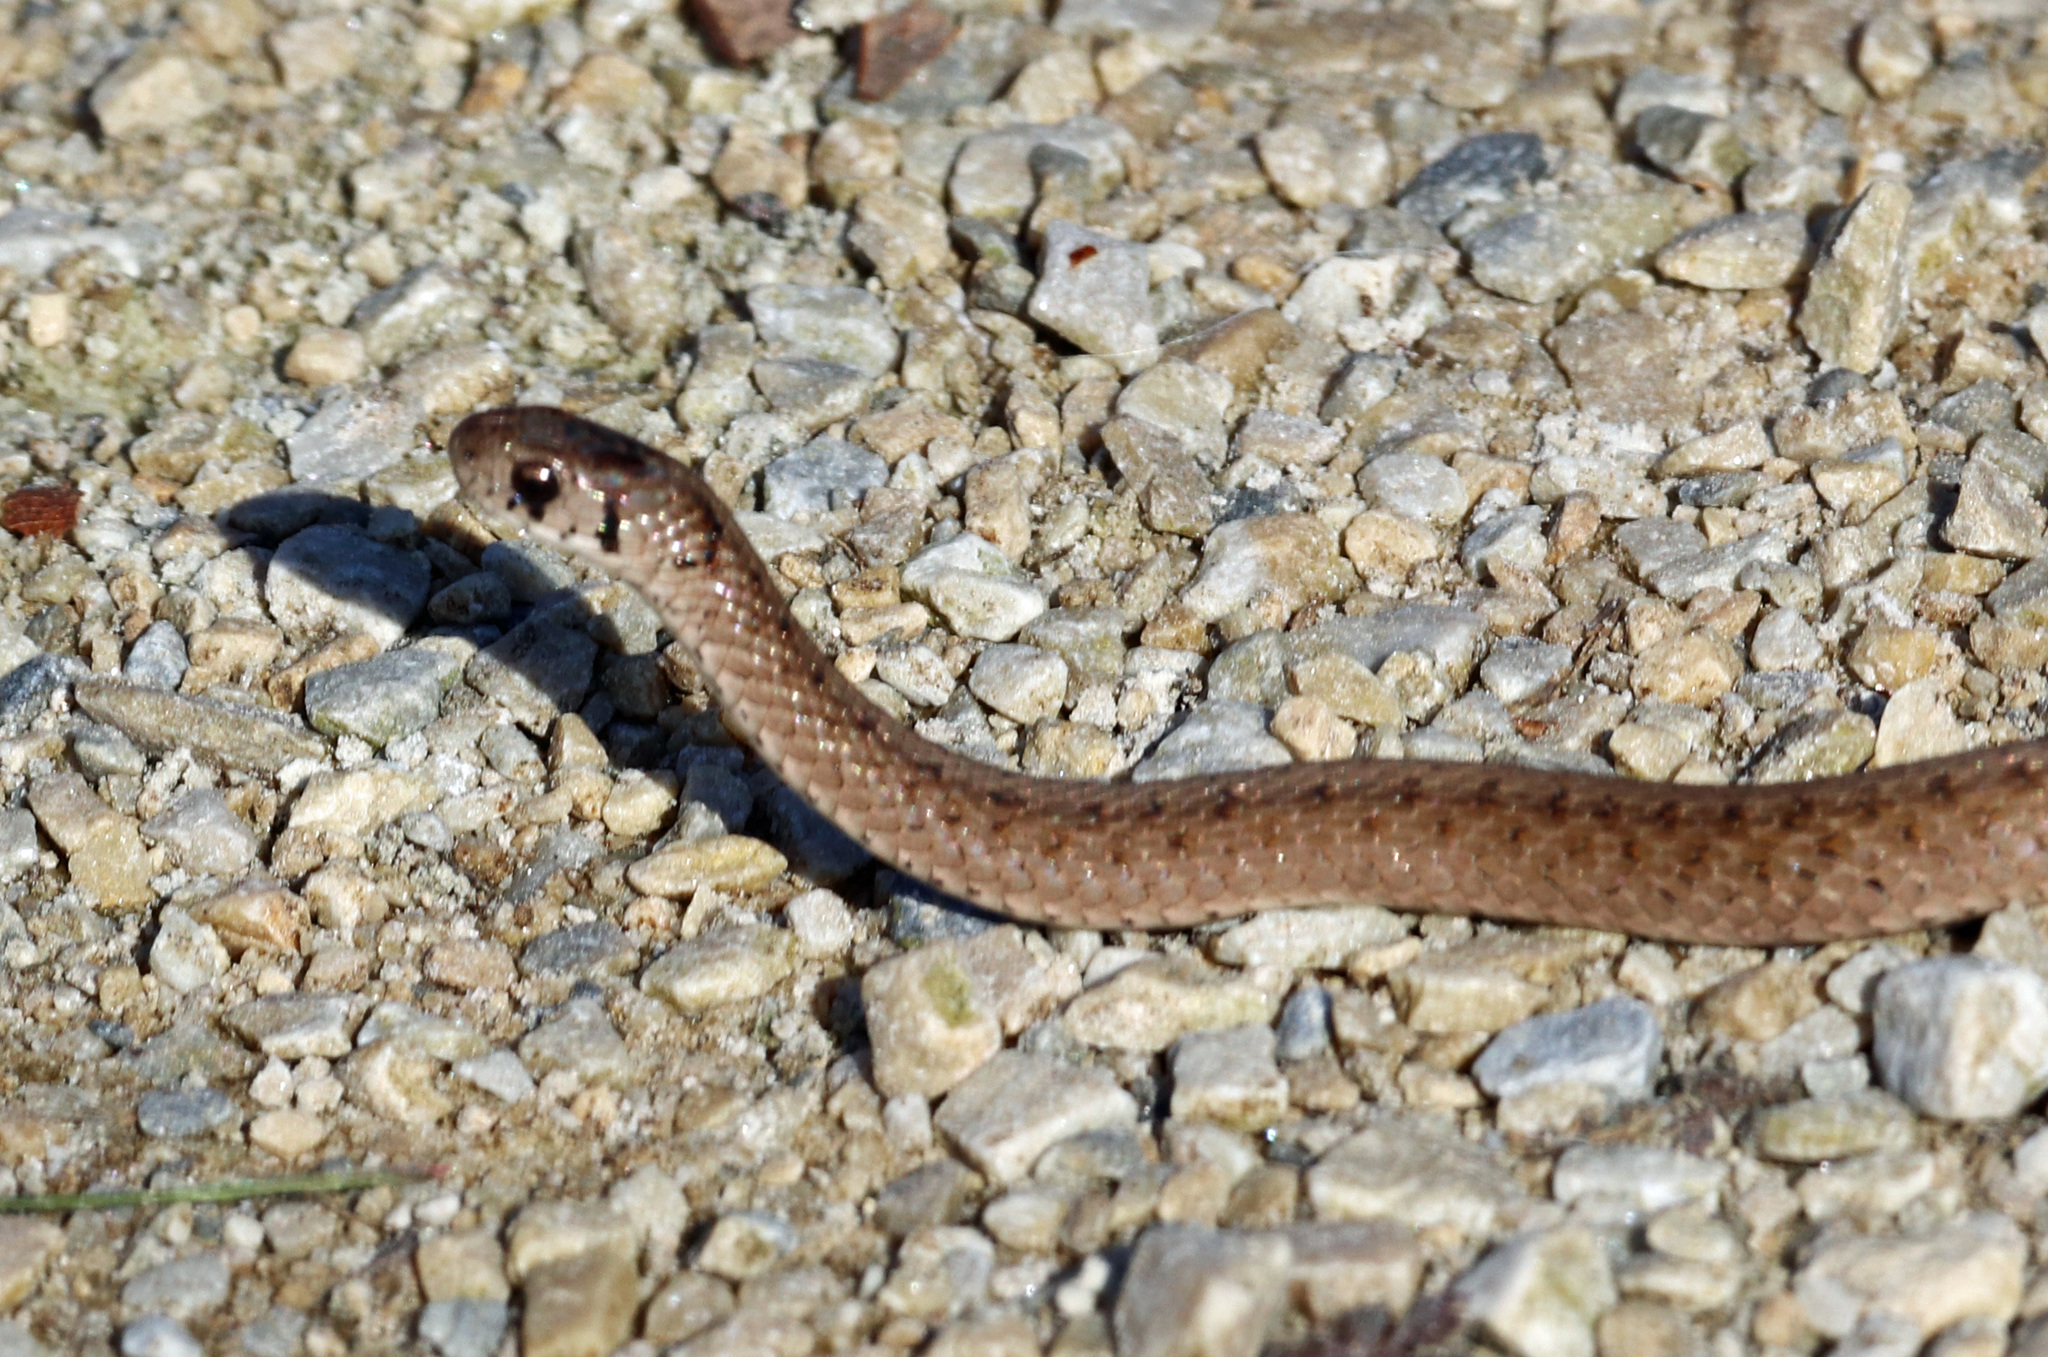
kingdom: Animalia
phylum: Chordata
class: Squamata
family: Colubridae
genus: Storeria
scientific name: Storeria dekayi
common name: (dekay’s) brown snake
